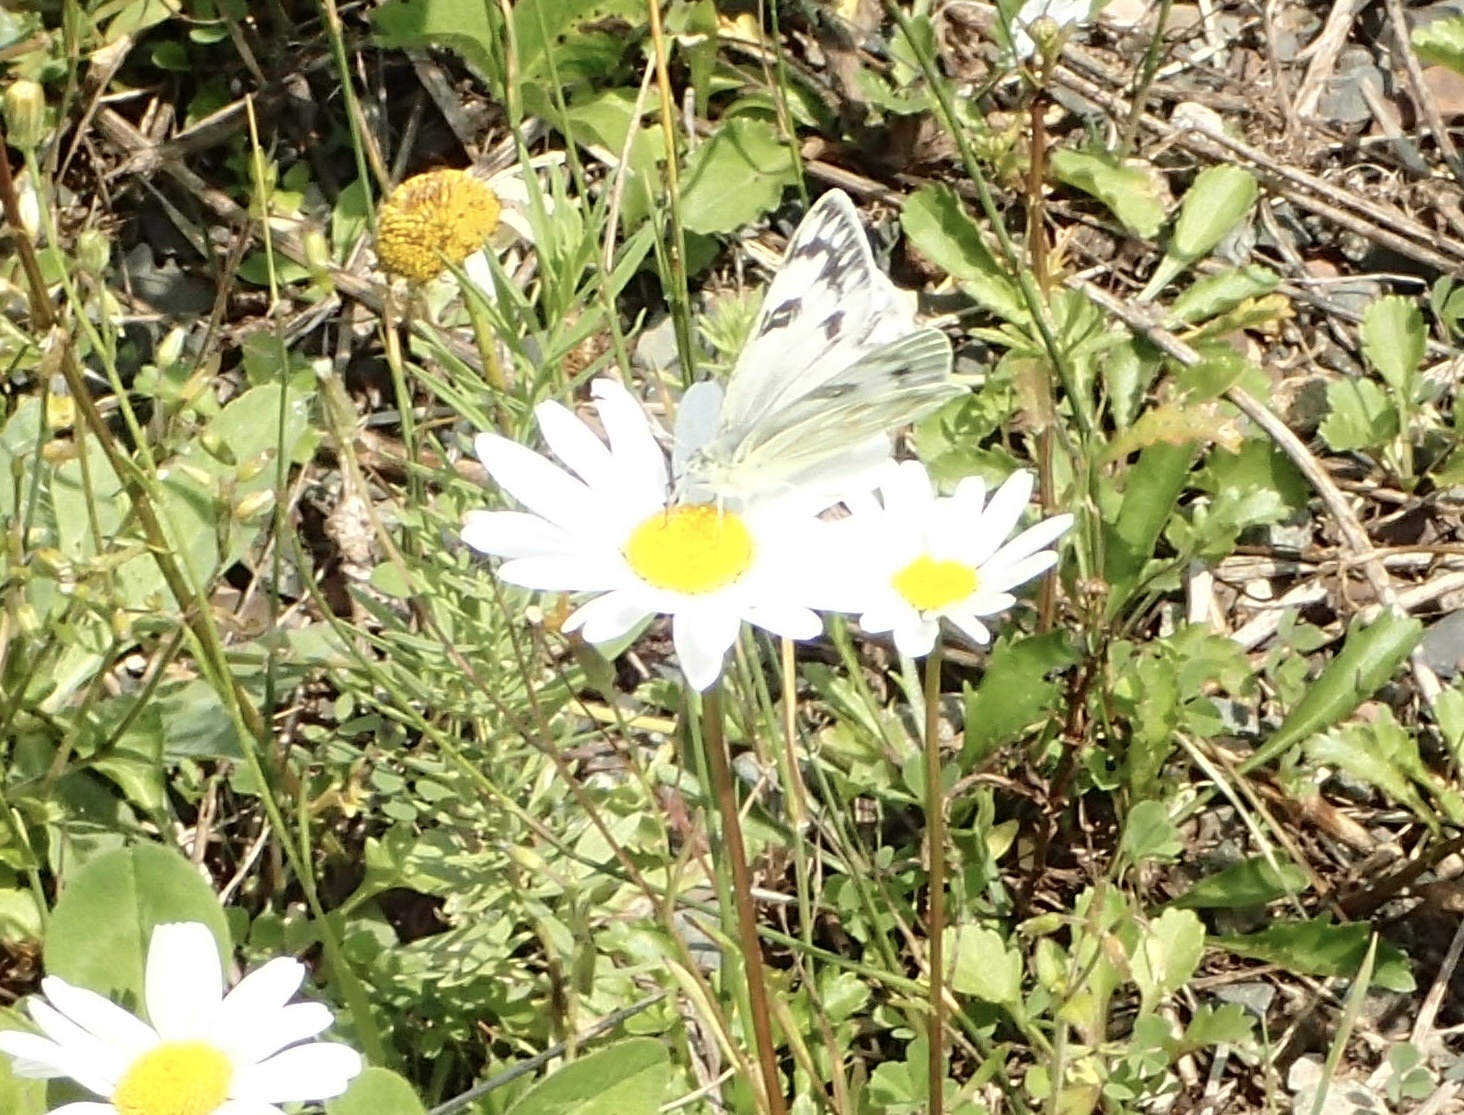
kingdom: Animalia
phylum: Arthropoda
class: Insecta
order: Lepidoptera
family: Pieridae
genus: Pontia
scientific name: Pontia occidentalis
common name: Western white
